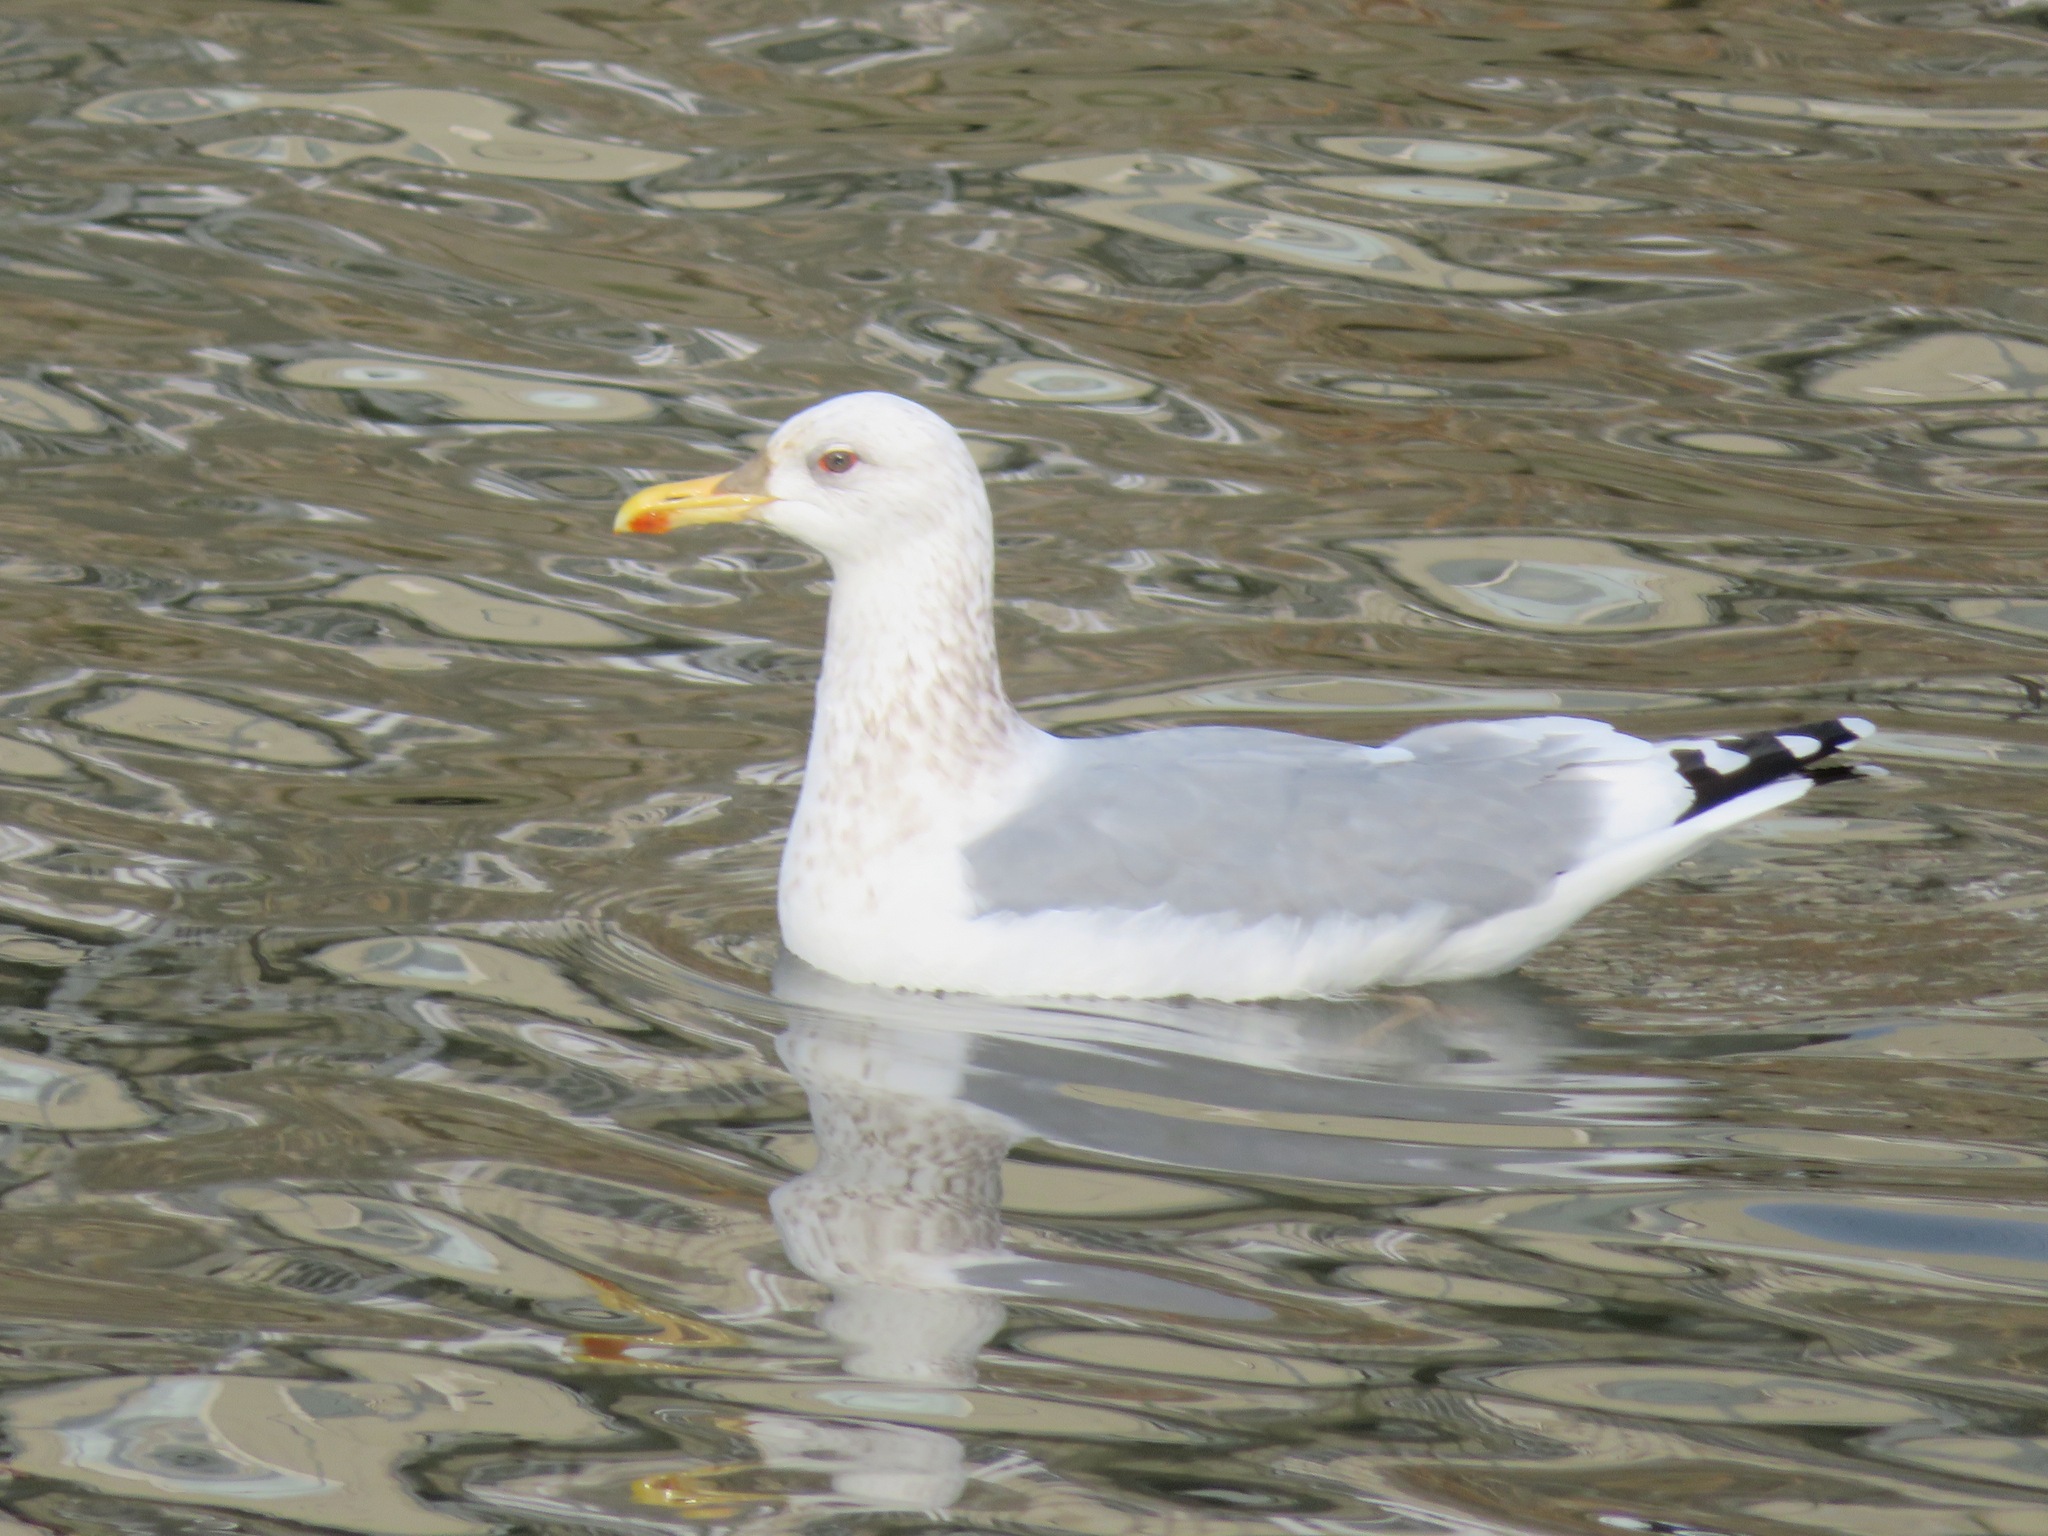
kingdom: Animalia
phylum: Chordata
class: Aves
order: Charadriiformes
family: Laridae
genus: Larus
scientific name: Larus vegae
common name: Vega gull
